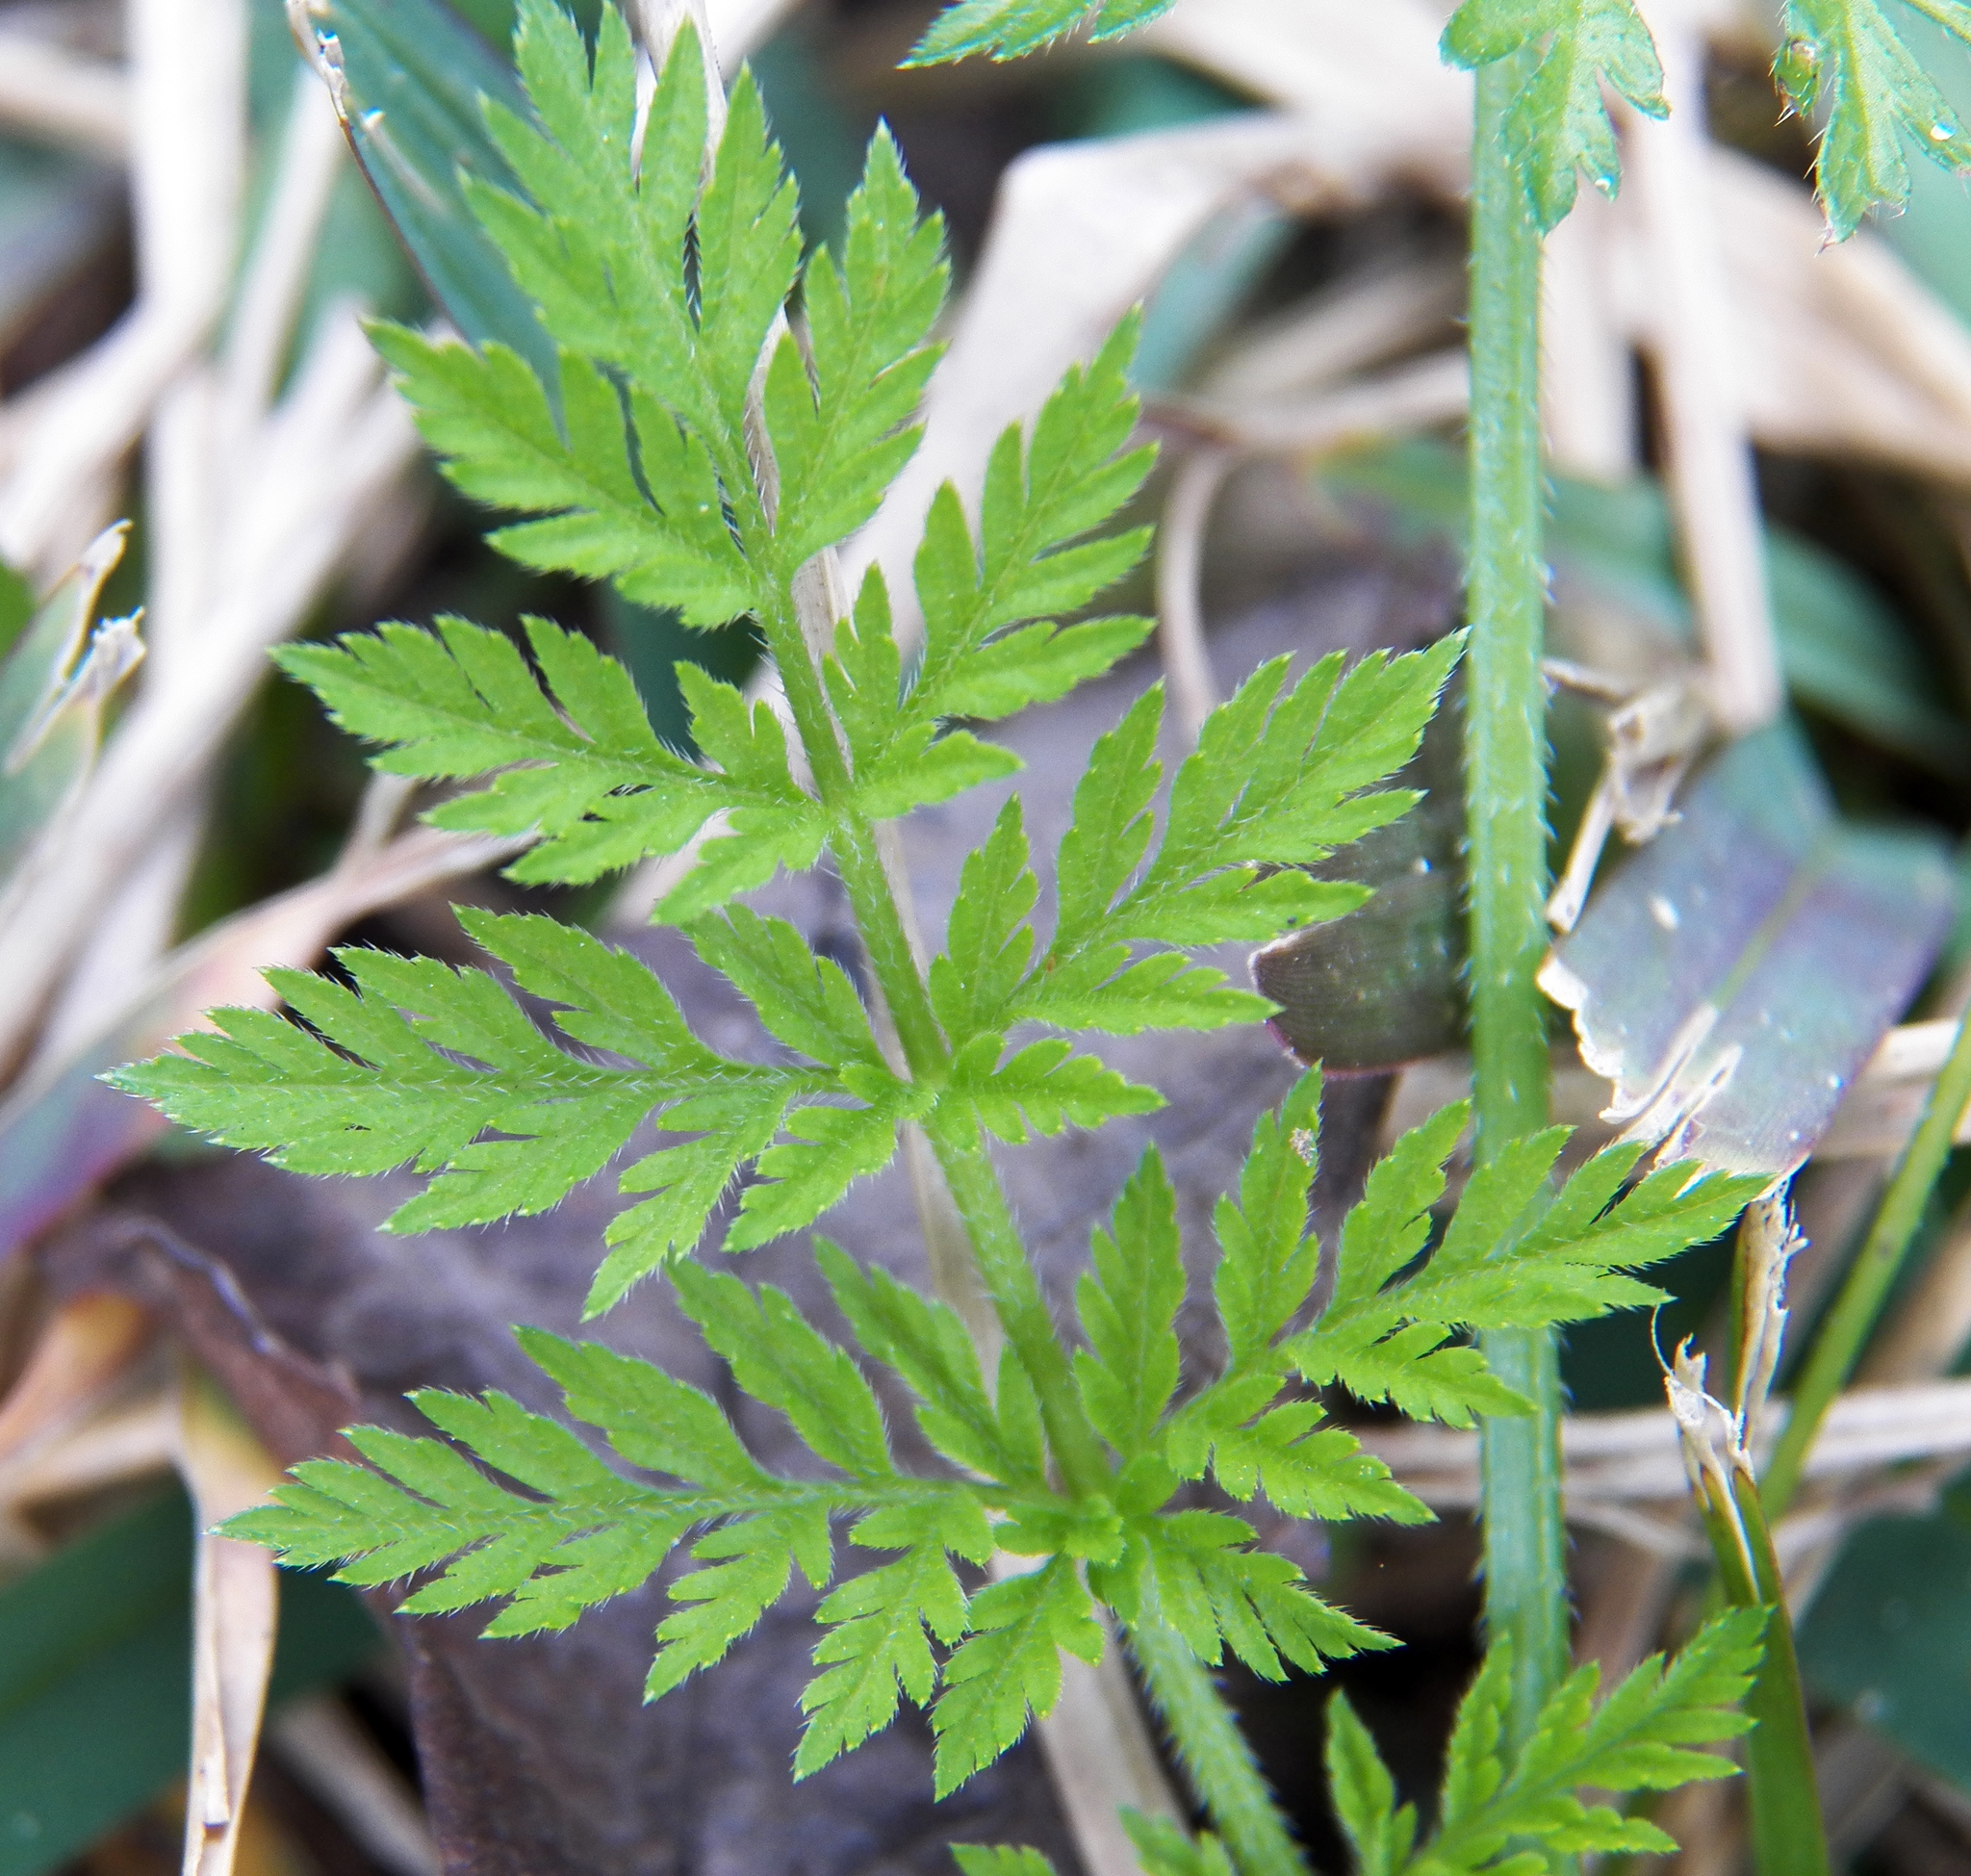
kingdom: Plantae
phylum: Tracheophyta
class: Magnoliopsida
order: Apiales
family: Apiaceae
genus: Torilis
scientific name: Torilis arvensis
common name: Spreading hedge-parsley
